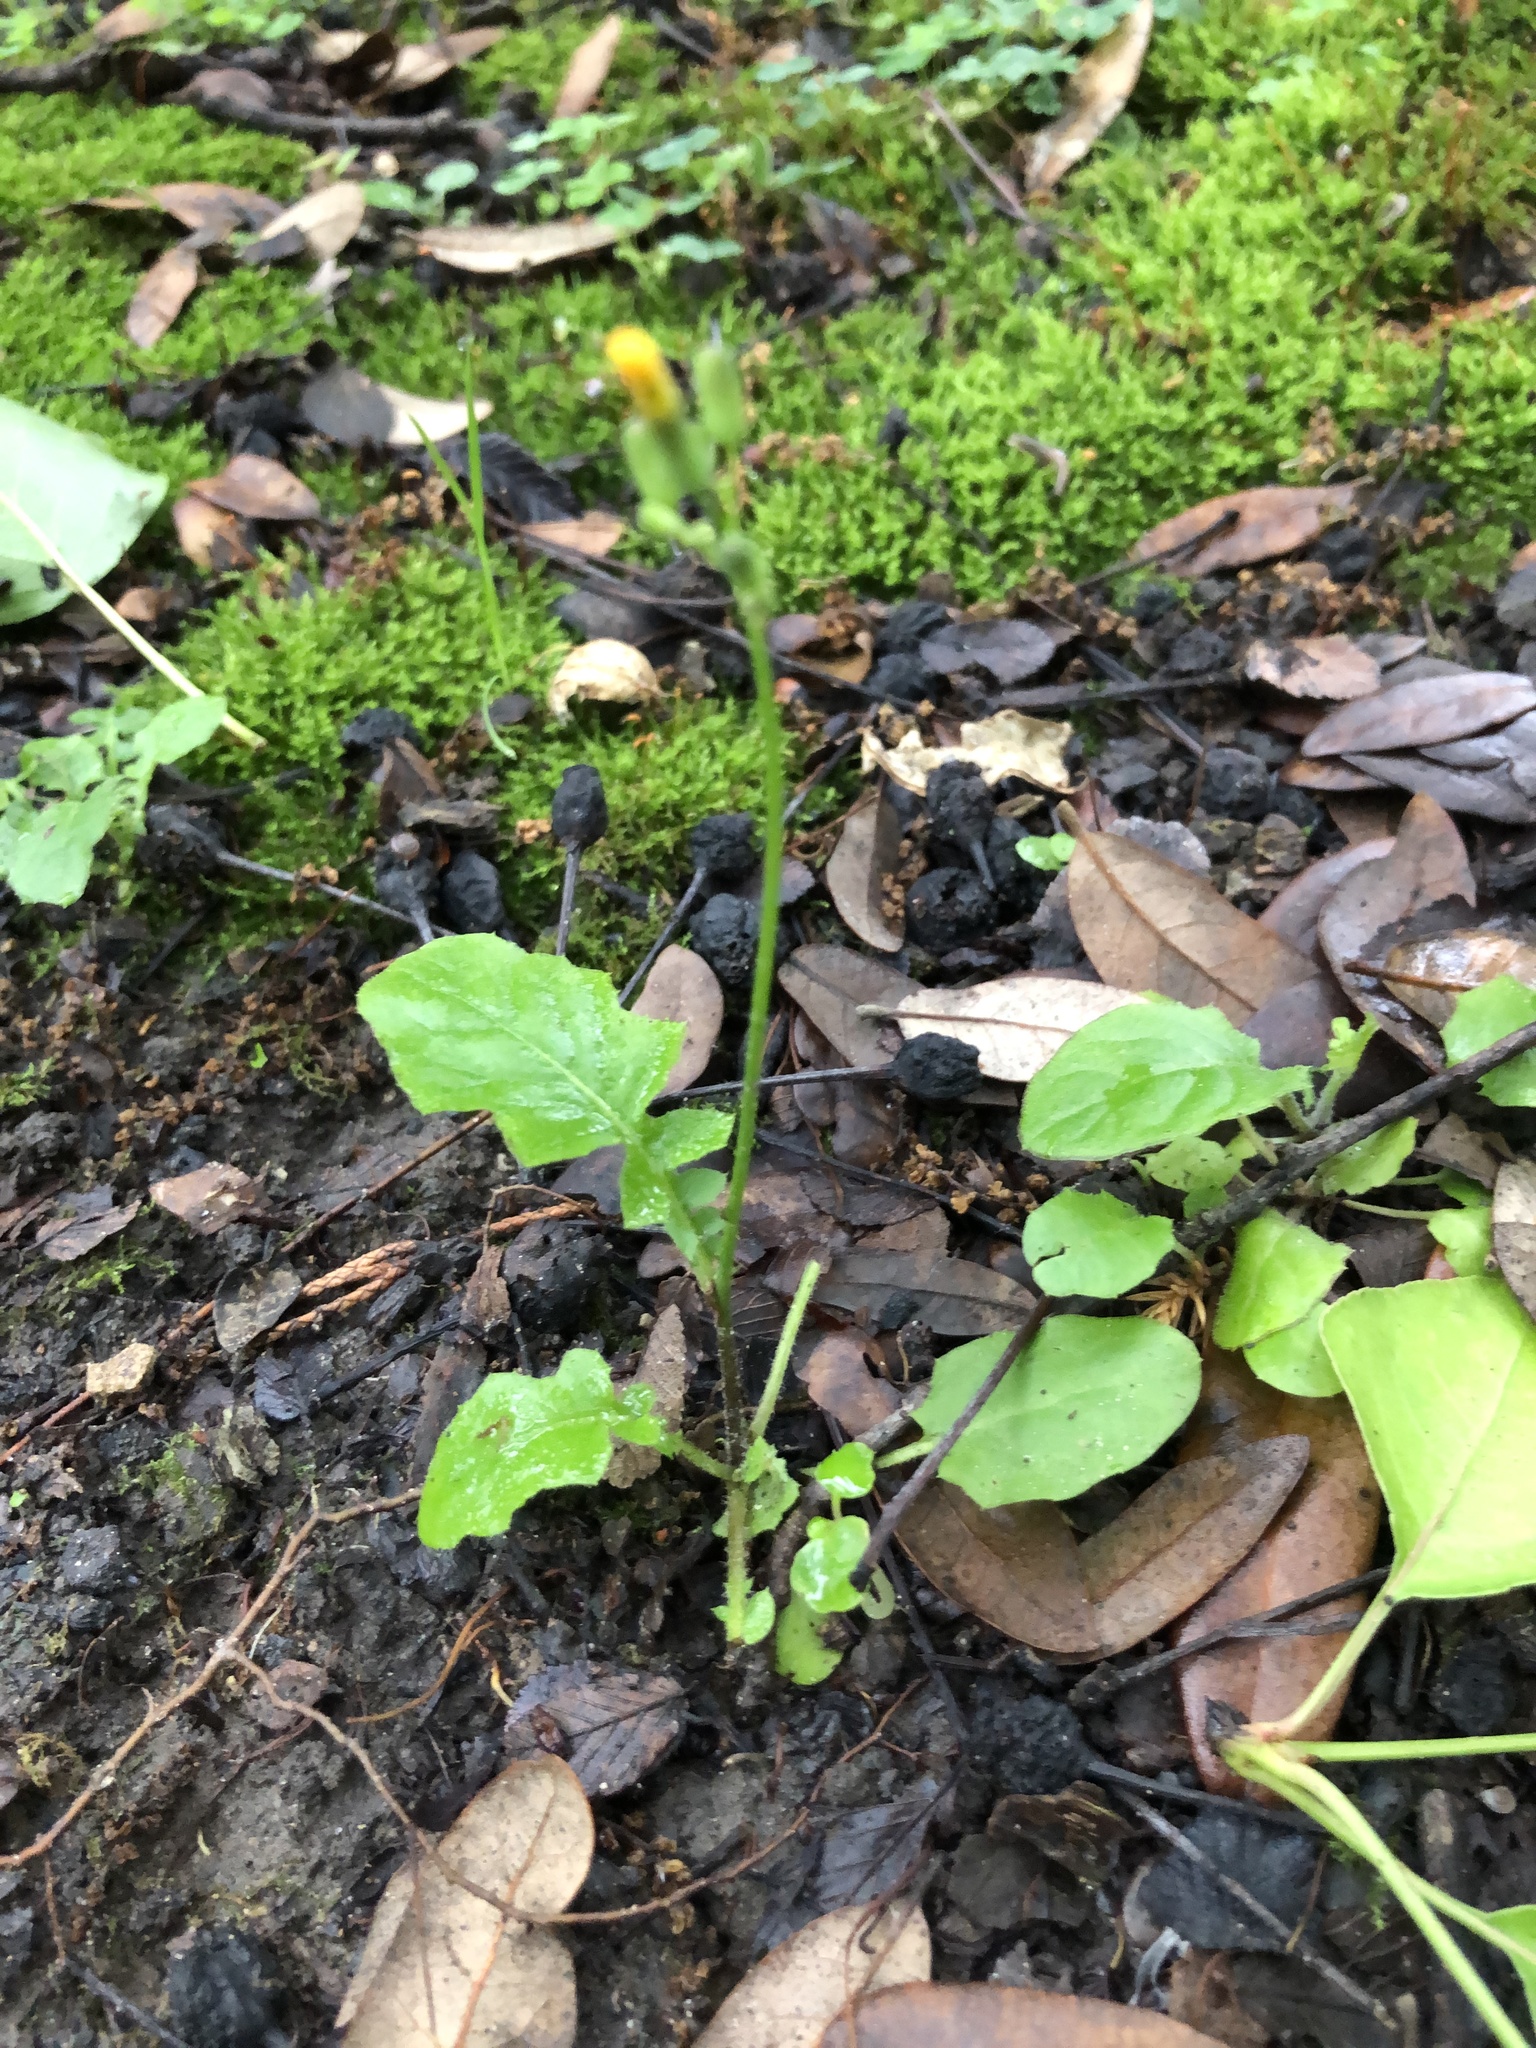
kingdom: Plantae
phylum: Tracheophyta
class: Magnoliopsida
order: Asterales
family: Asteraceae
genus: Youngia
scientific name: Youngia japonica
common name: Oriental false hawksbeard
